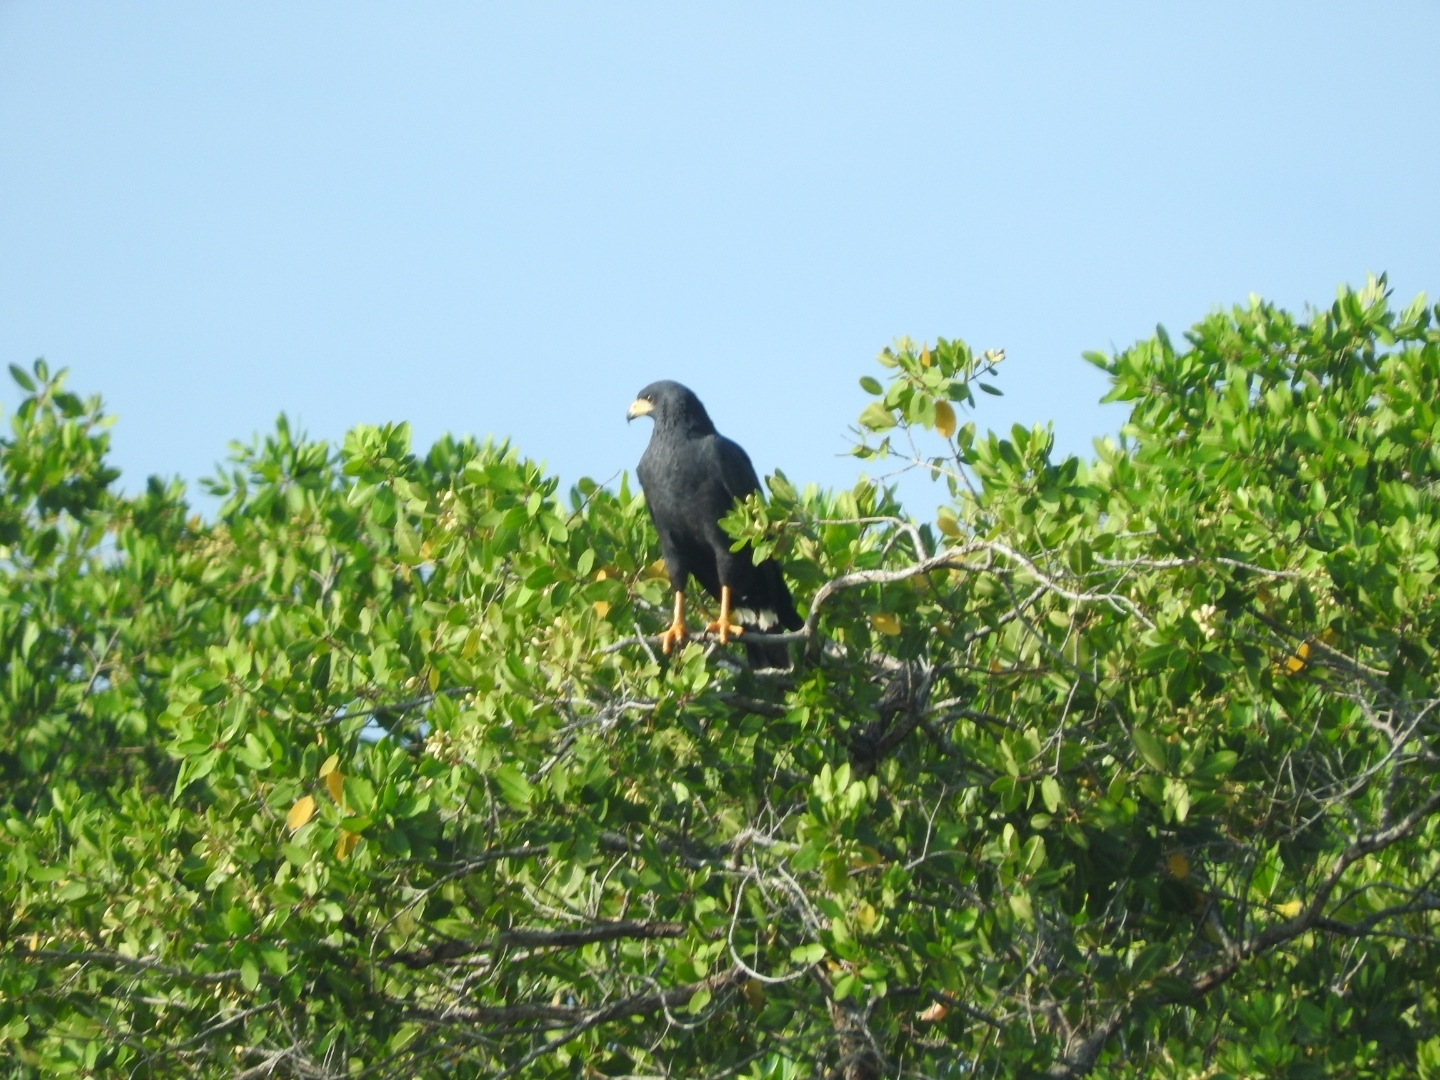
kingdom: Animalia
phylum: Chordata
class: Aves
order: Accipitriformes
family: Accipitridae
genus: Buteogallus
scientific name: Buteogallus anthracinus
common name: Common black hawk
